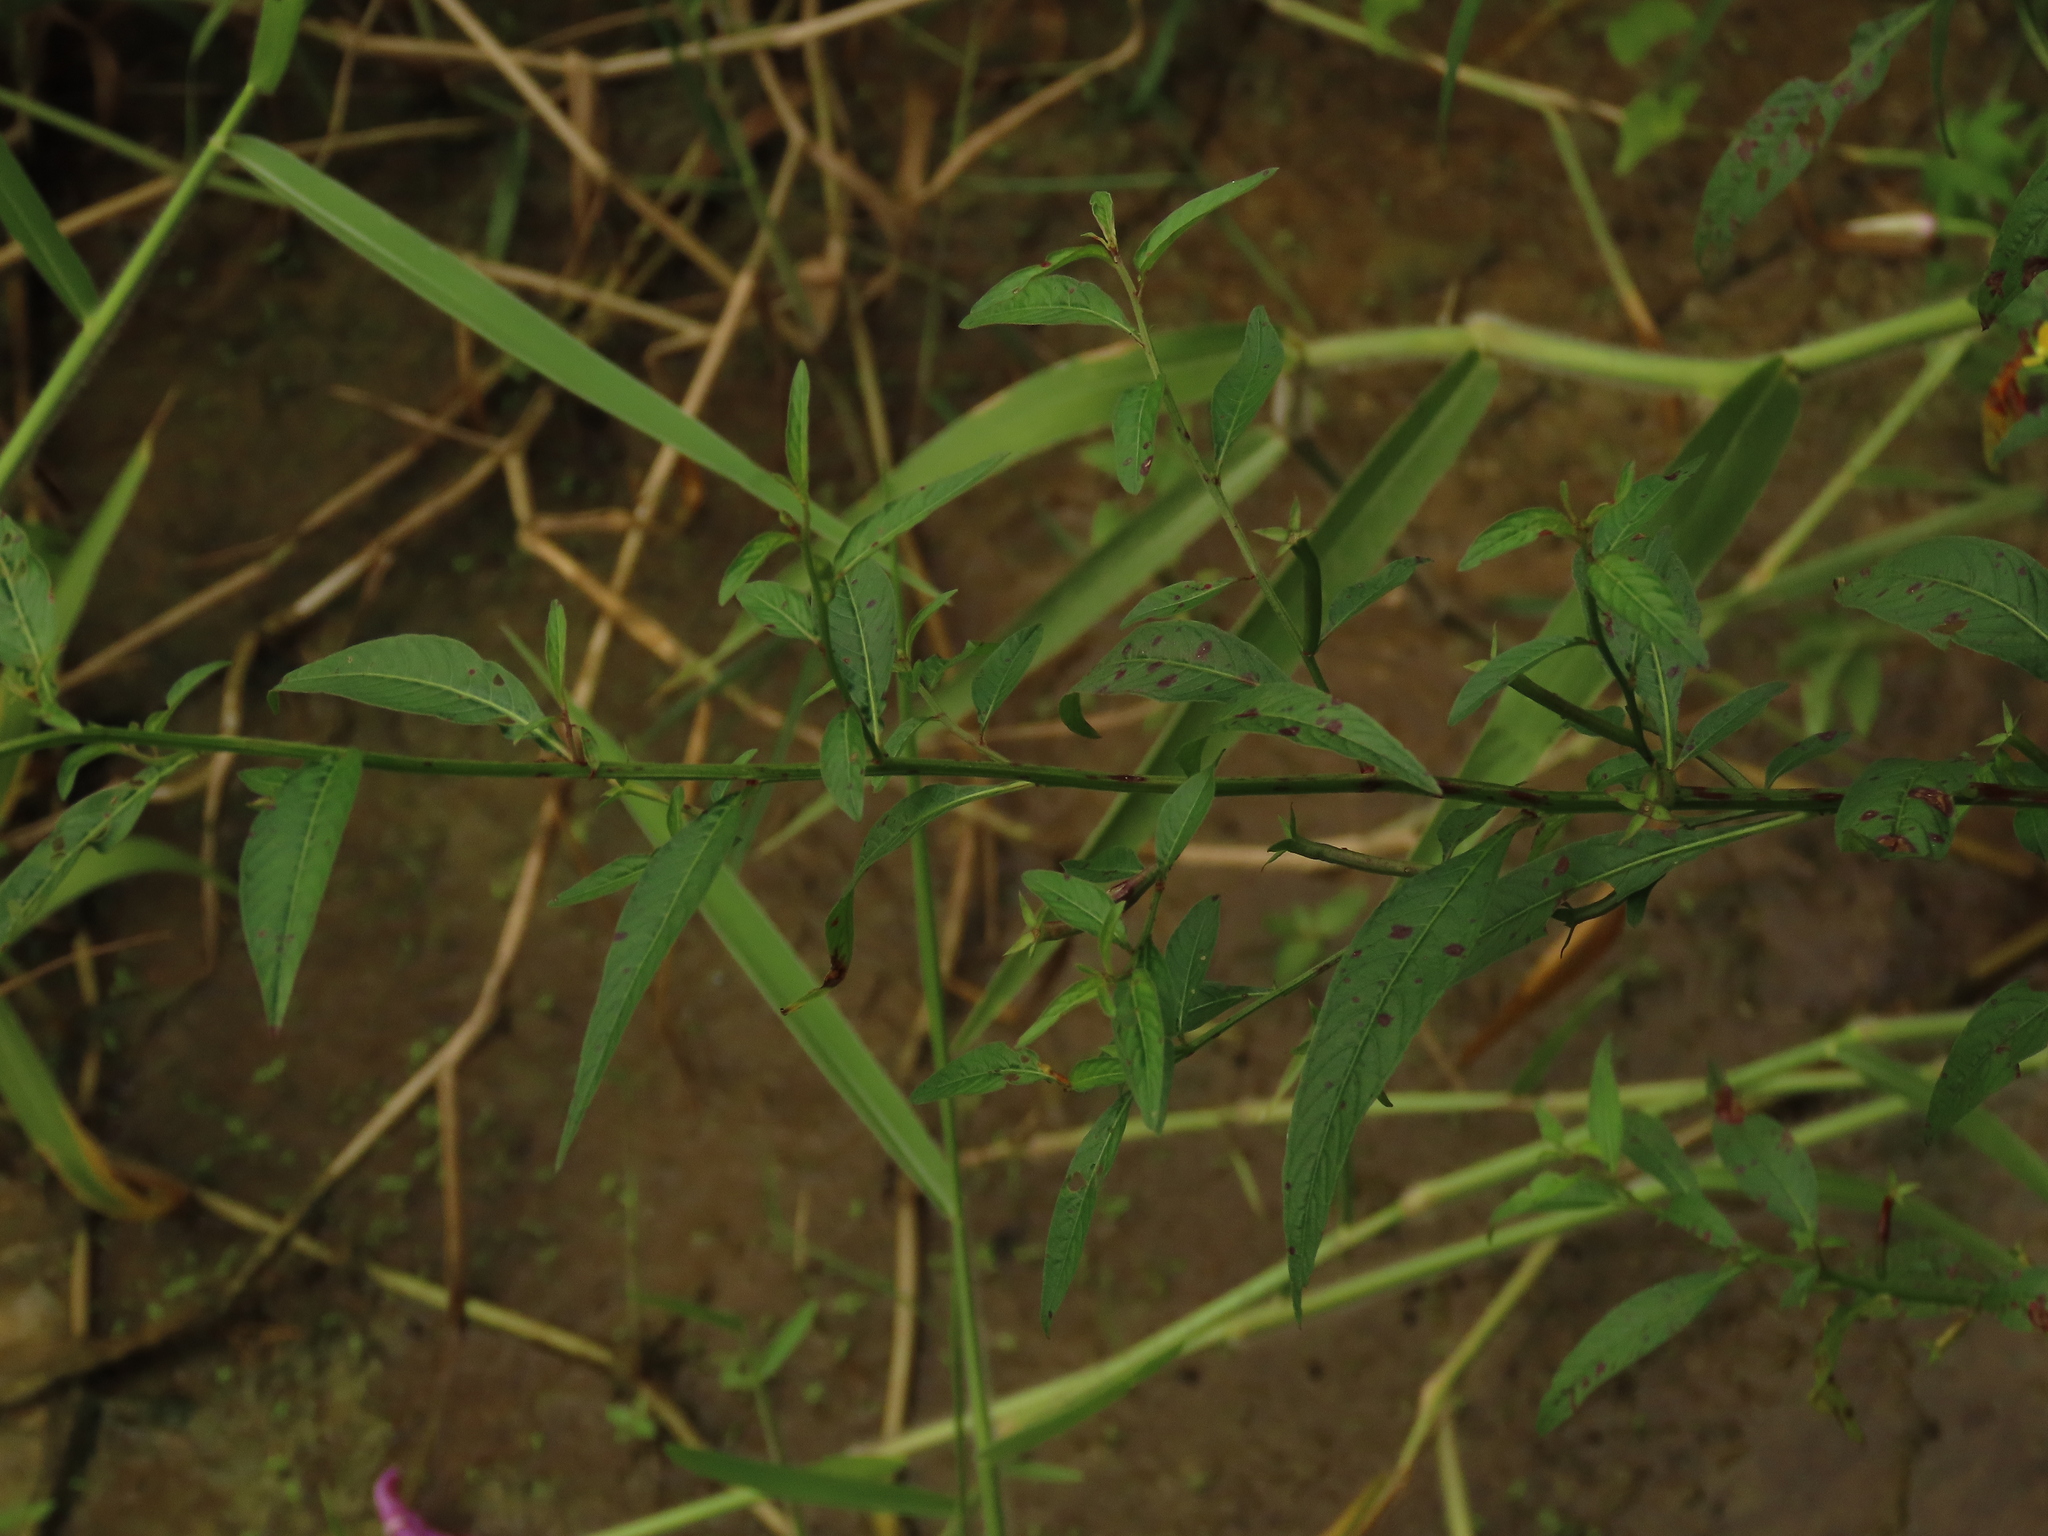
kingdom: Plantae
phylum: Tracheophyta
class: Magnoliopsida
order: Myrtales
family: Onagraceae
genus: Ludwigia
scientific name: Ludwigia hyssopifolia
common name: Linear leaf water primrose
